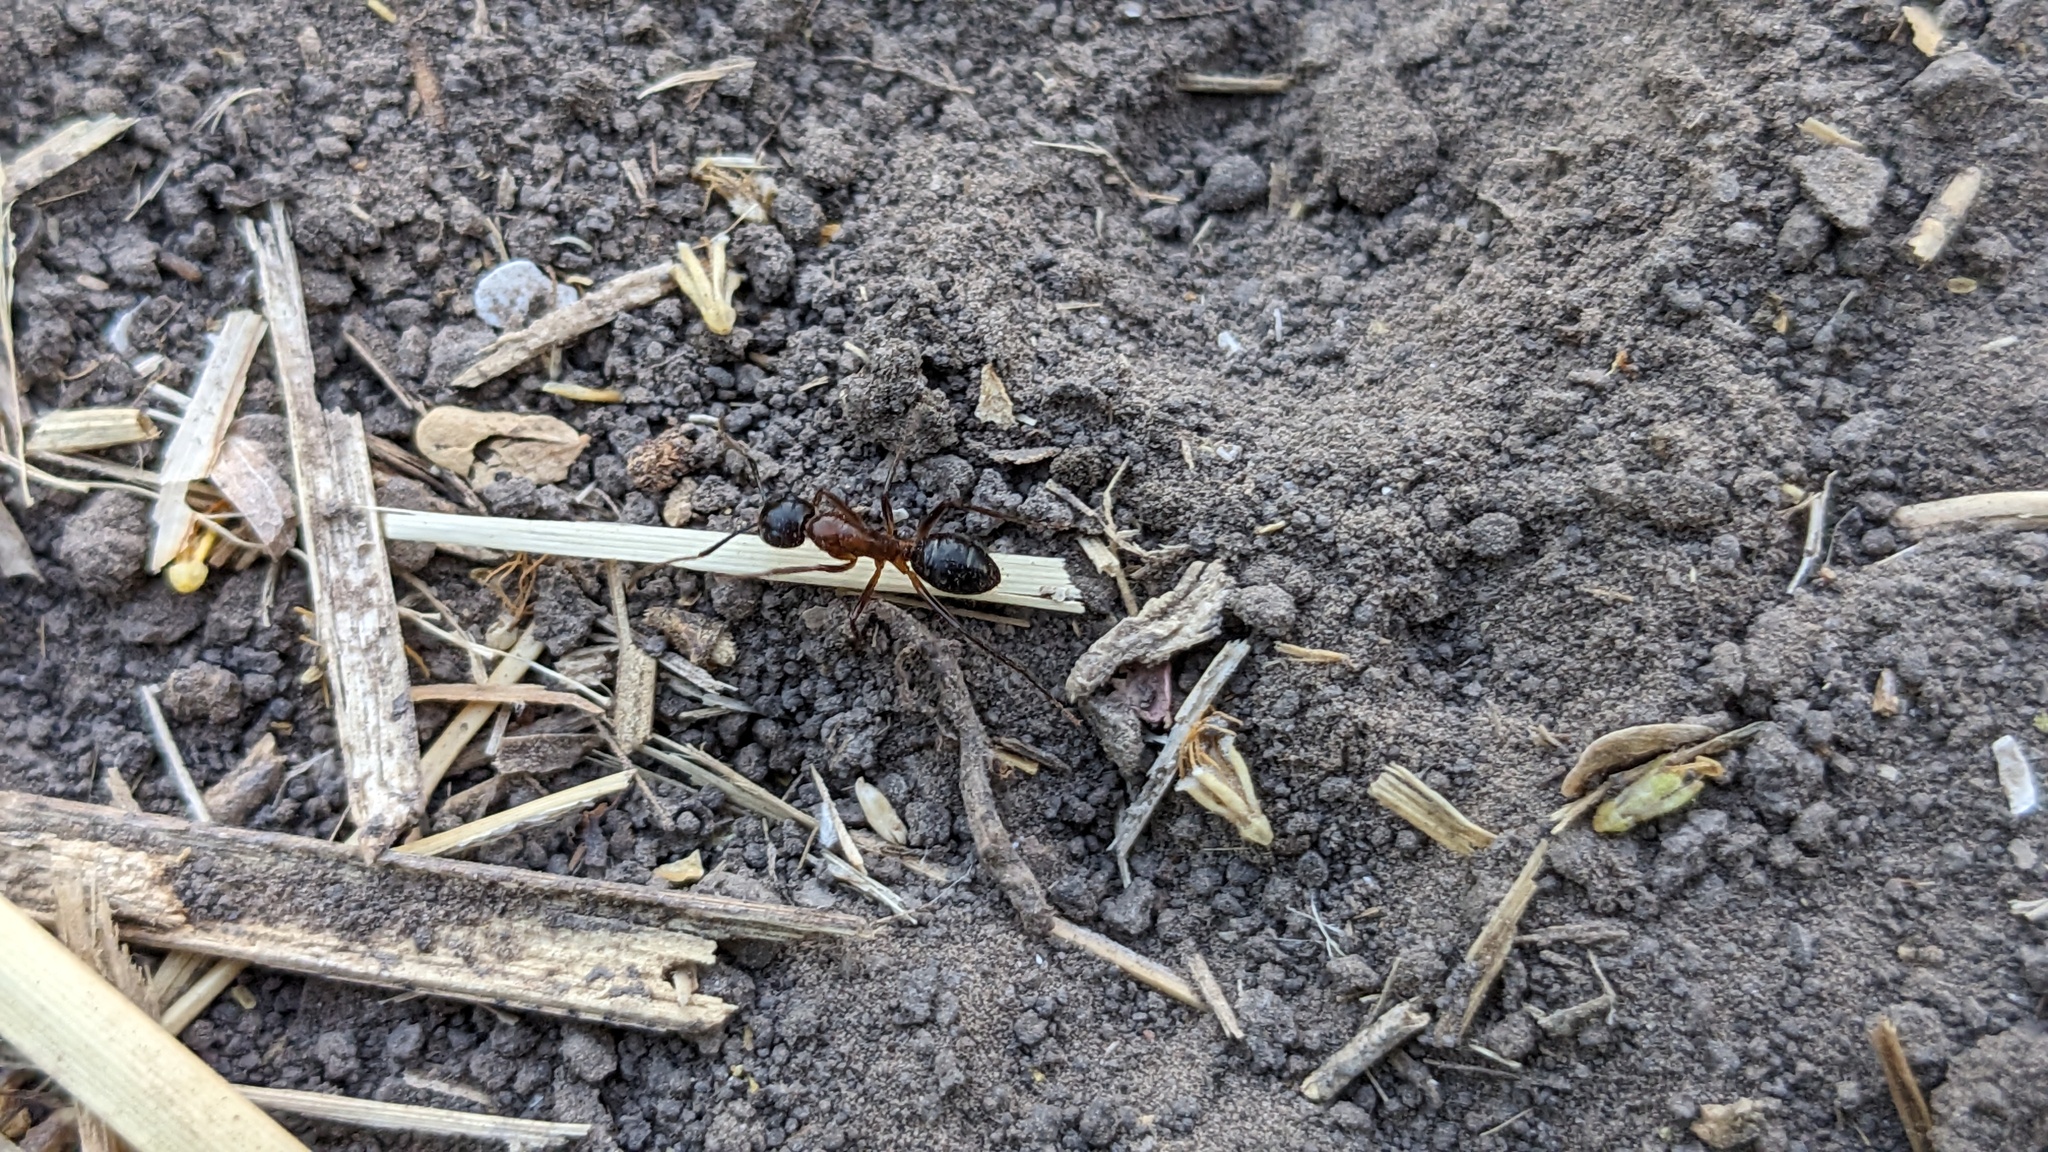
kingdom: Animalia
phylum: Arthropoda
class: Insecta
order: Hymenoptera
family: Formicidae
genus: Camponotus
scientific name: Camponotus atriceps
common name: Florida carpenter ant
